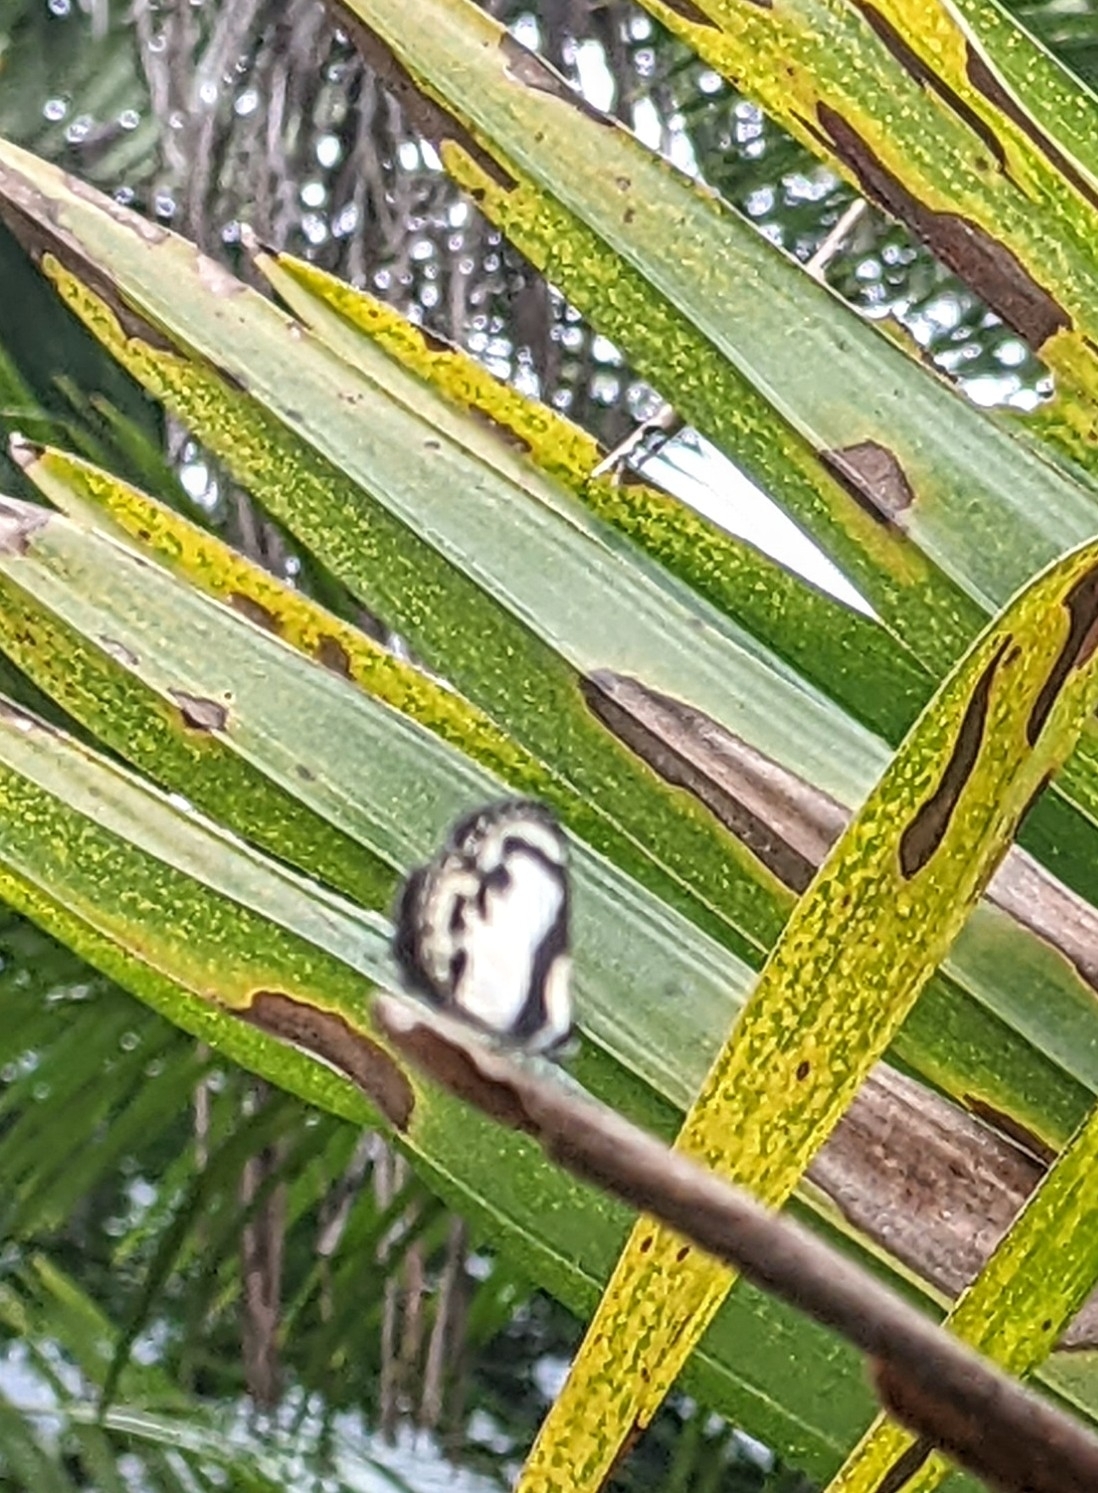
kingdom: Animalia
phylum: Arthropoda
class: Insecta
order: Lepidoptera
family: Lycaenidae
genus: Caleta
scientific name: Caleta roxus
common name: Straight pierrot
